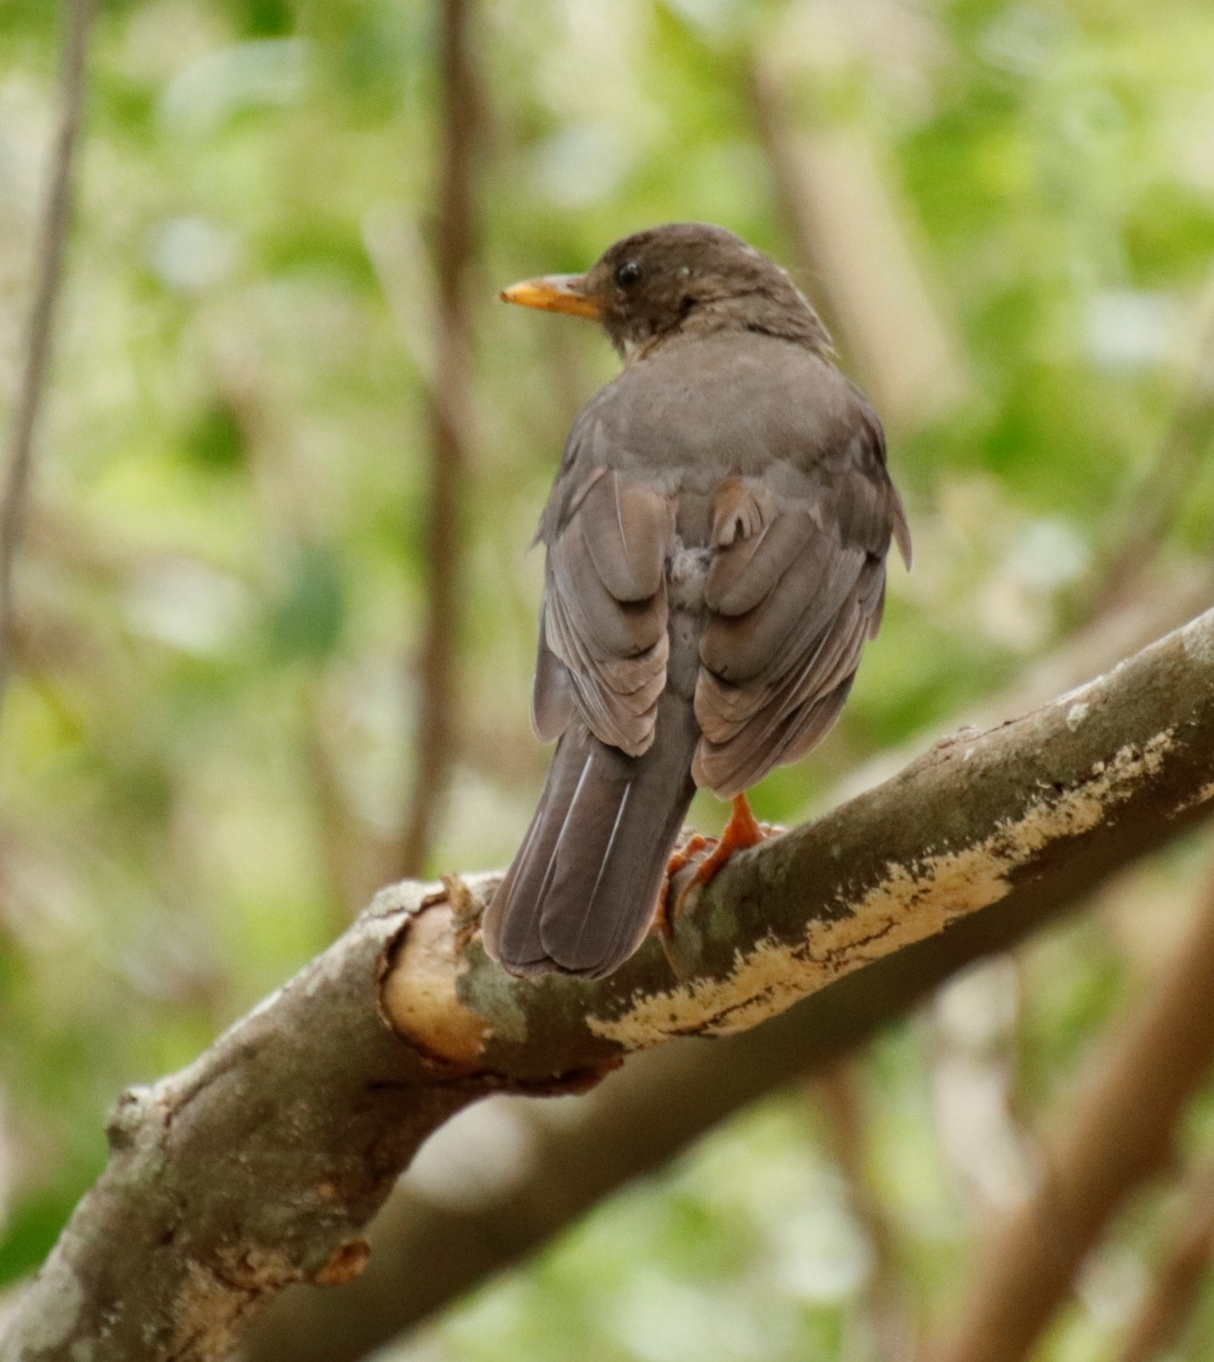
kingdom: Animalia
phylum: Chordata
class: Aves
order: Passeriformes
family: Turdidae
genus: Turdus
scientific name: Turdus olivaceus
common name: Olive thrush
